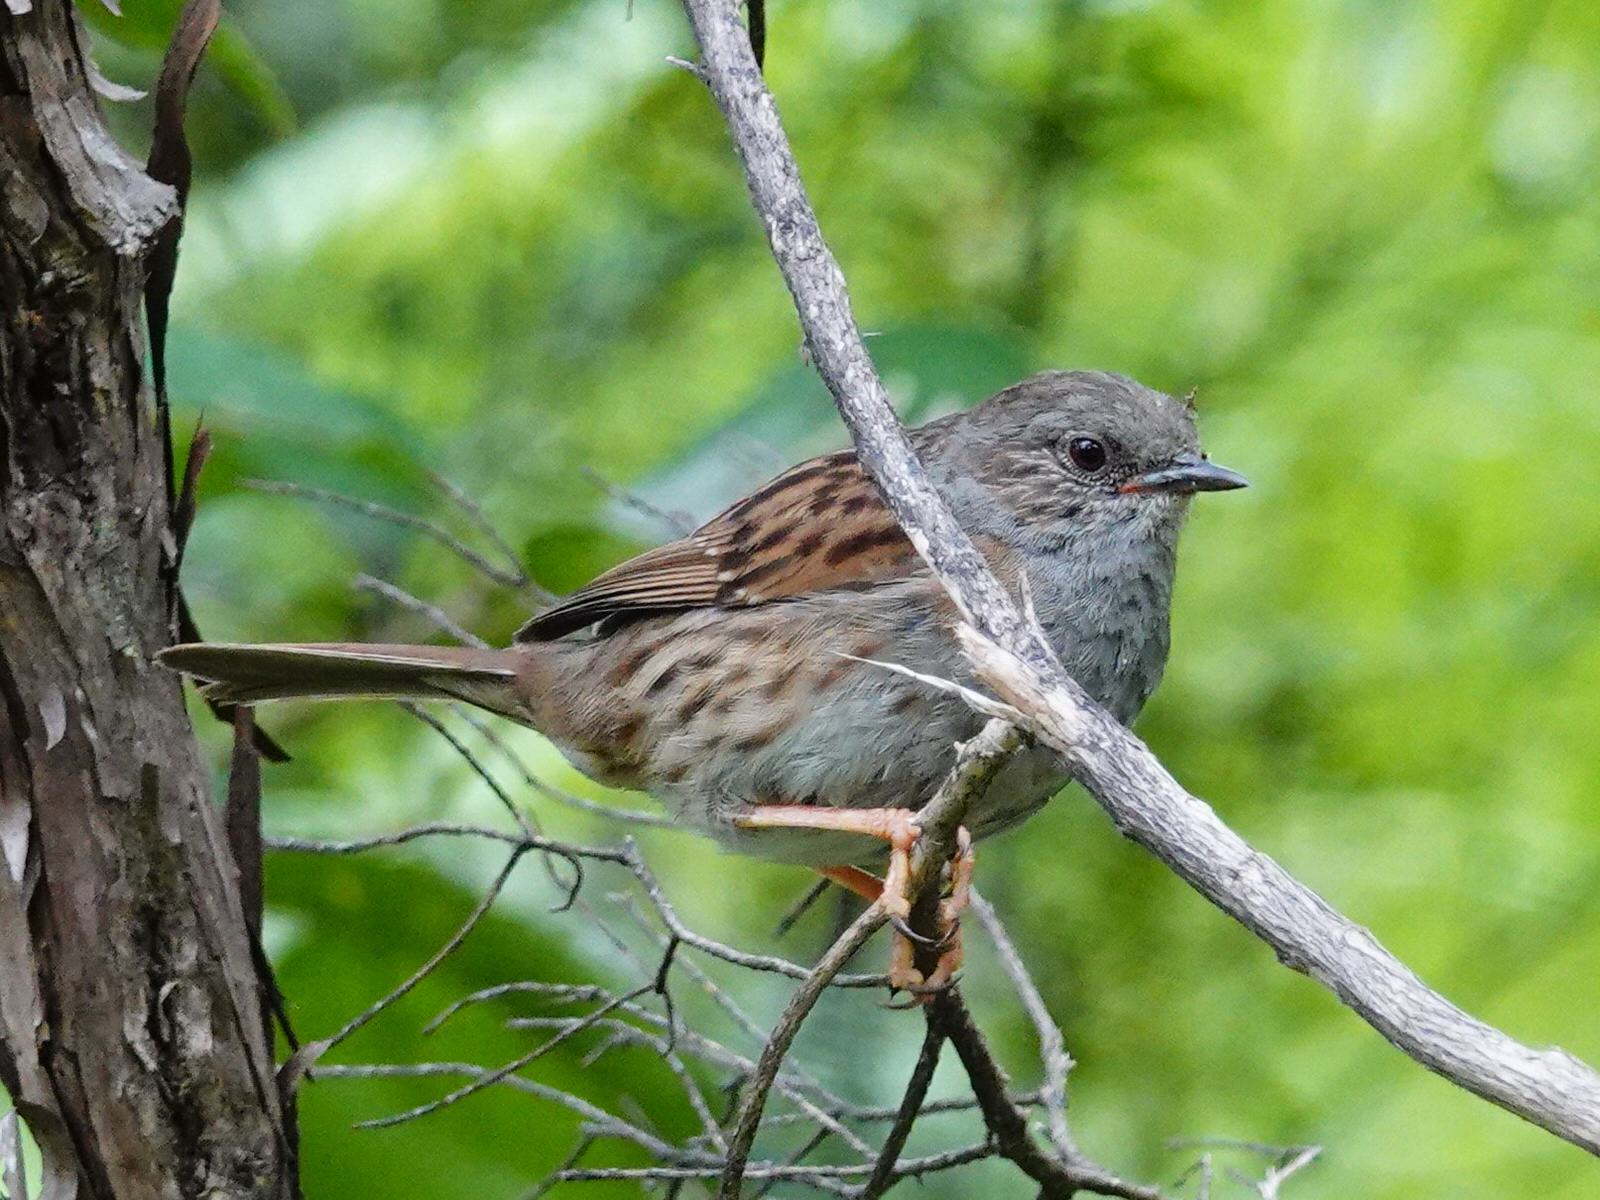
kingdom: Animalia
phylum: Chordata
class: Aves
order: Passeriformes
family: Prunellidae
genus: Prunella
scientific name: Prunella modularis
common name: Dunnock
